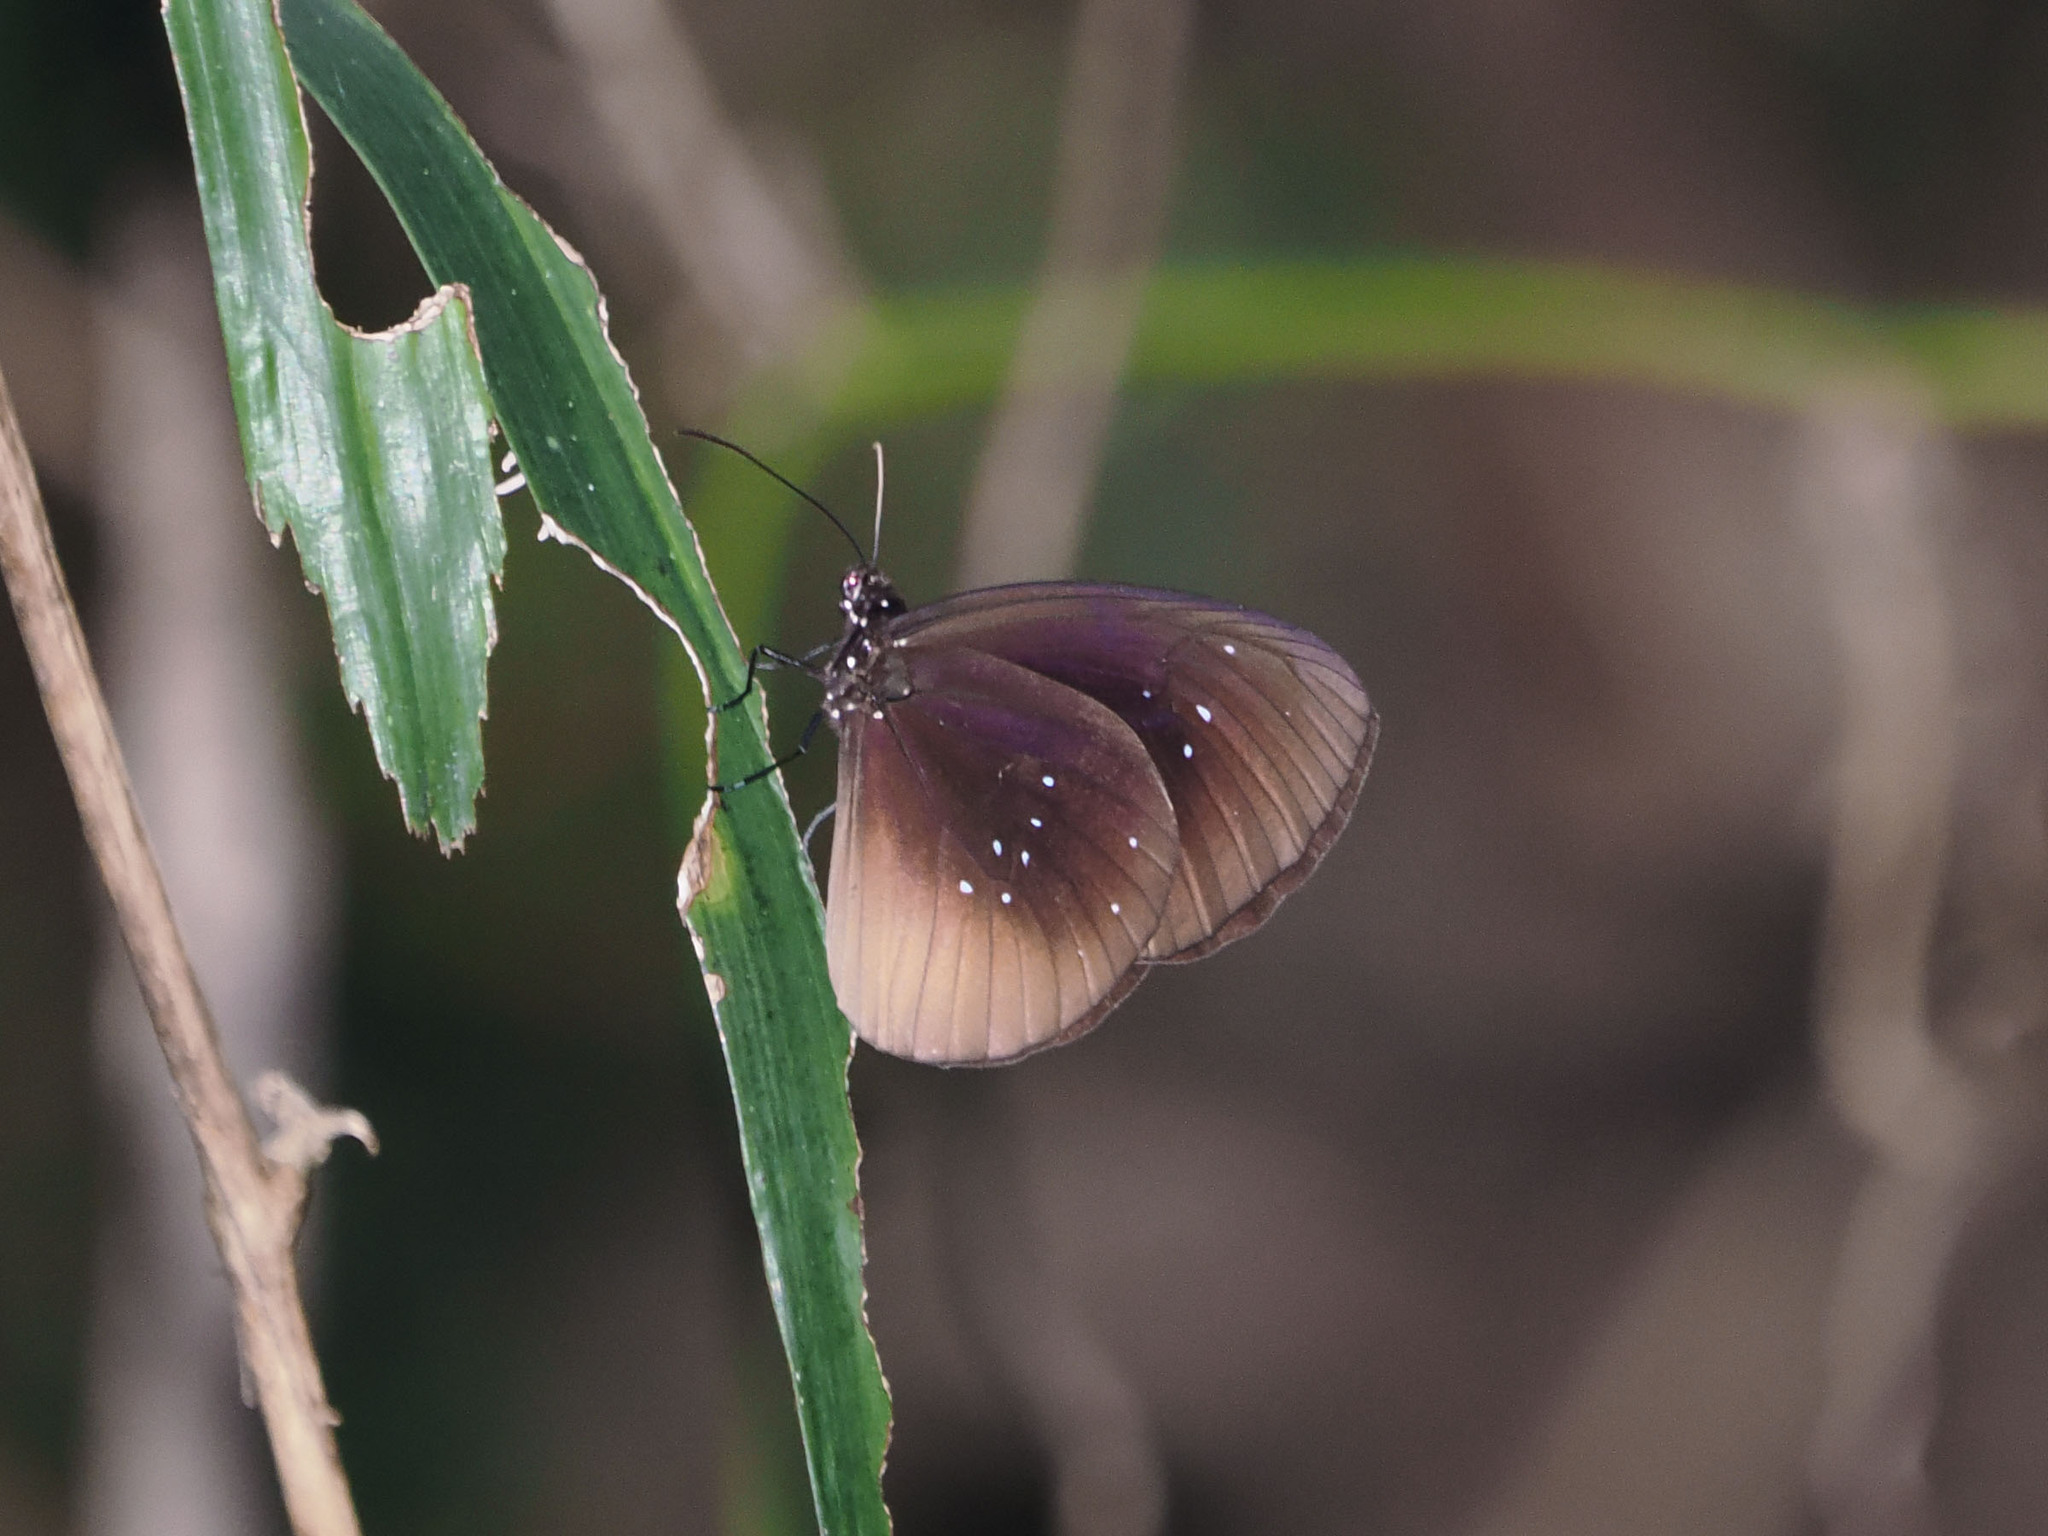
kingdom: Animalia
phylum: Arthropoda
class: Insecta
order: Lepidoptera
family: Nymphalidae
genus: Euploea
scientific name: Euploea netscheri
